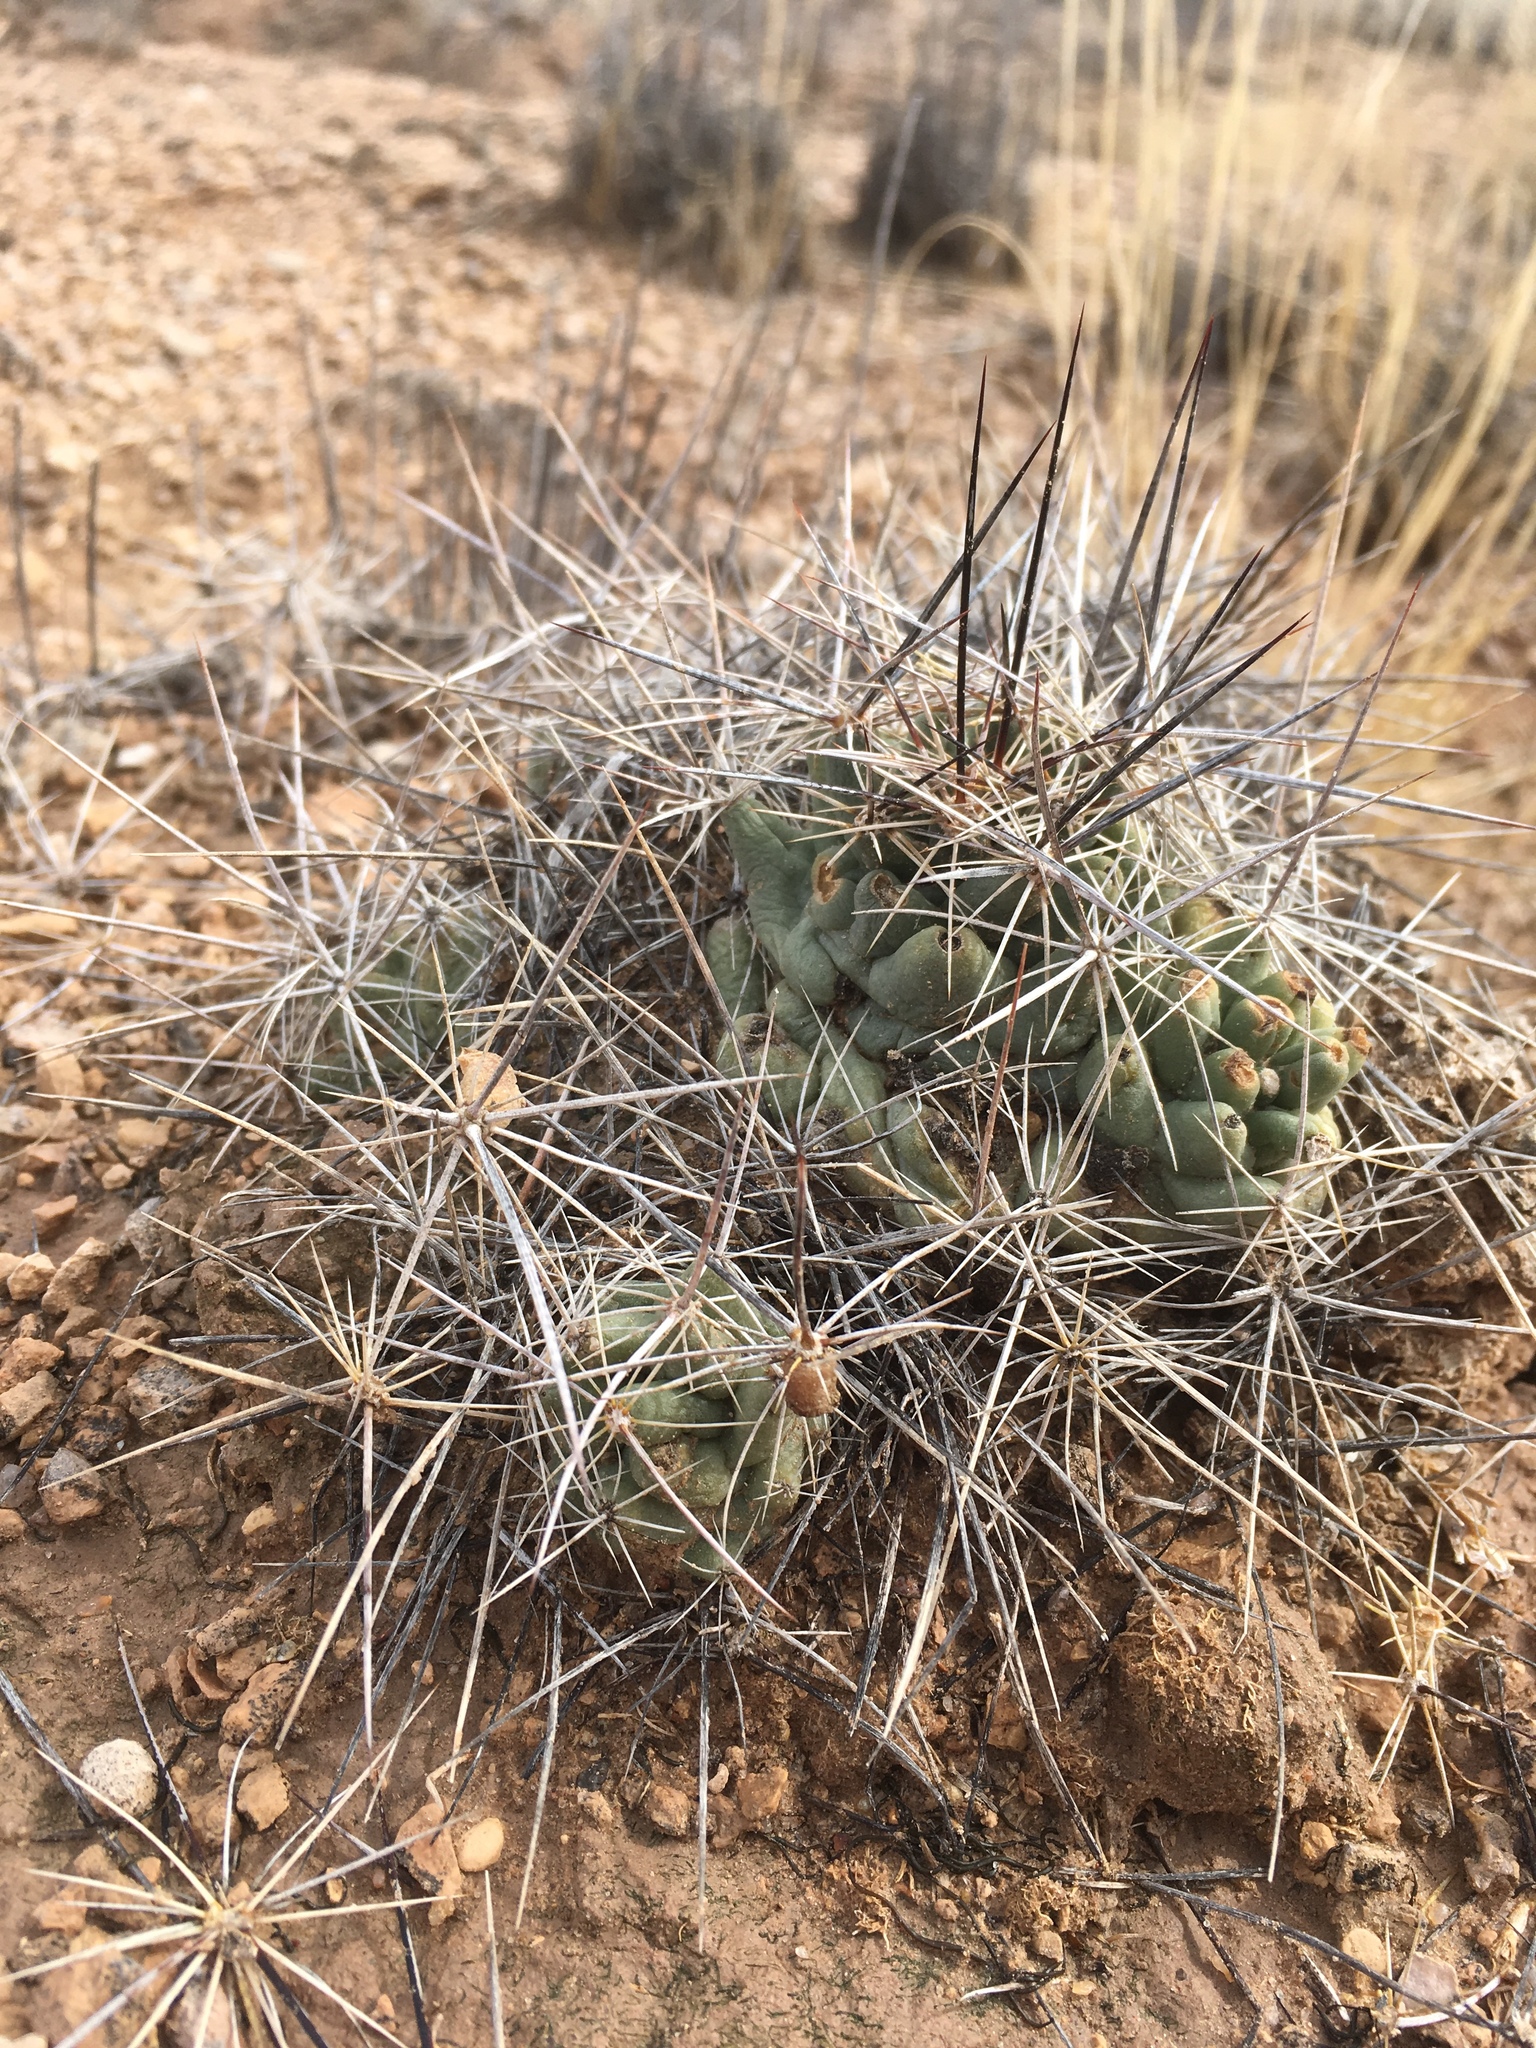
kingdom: Plantae
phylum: Tracheophyta
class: Magnoliopsida
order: Caryophyllales
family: Cactaceae
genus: Coryphantha
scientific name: Coryphantha macromeris
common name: Nipple beehive cactus
